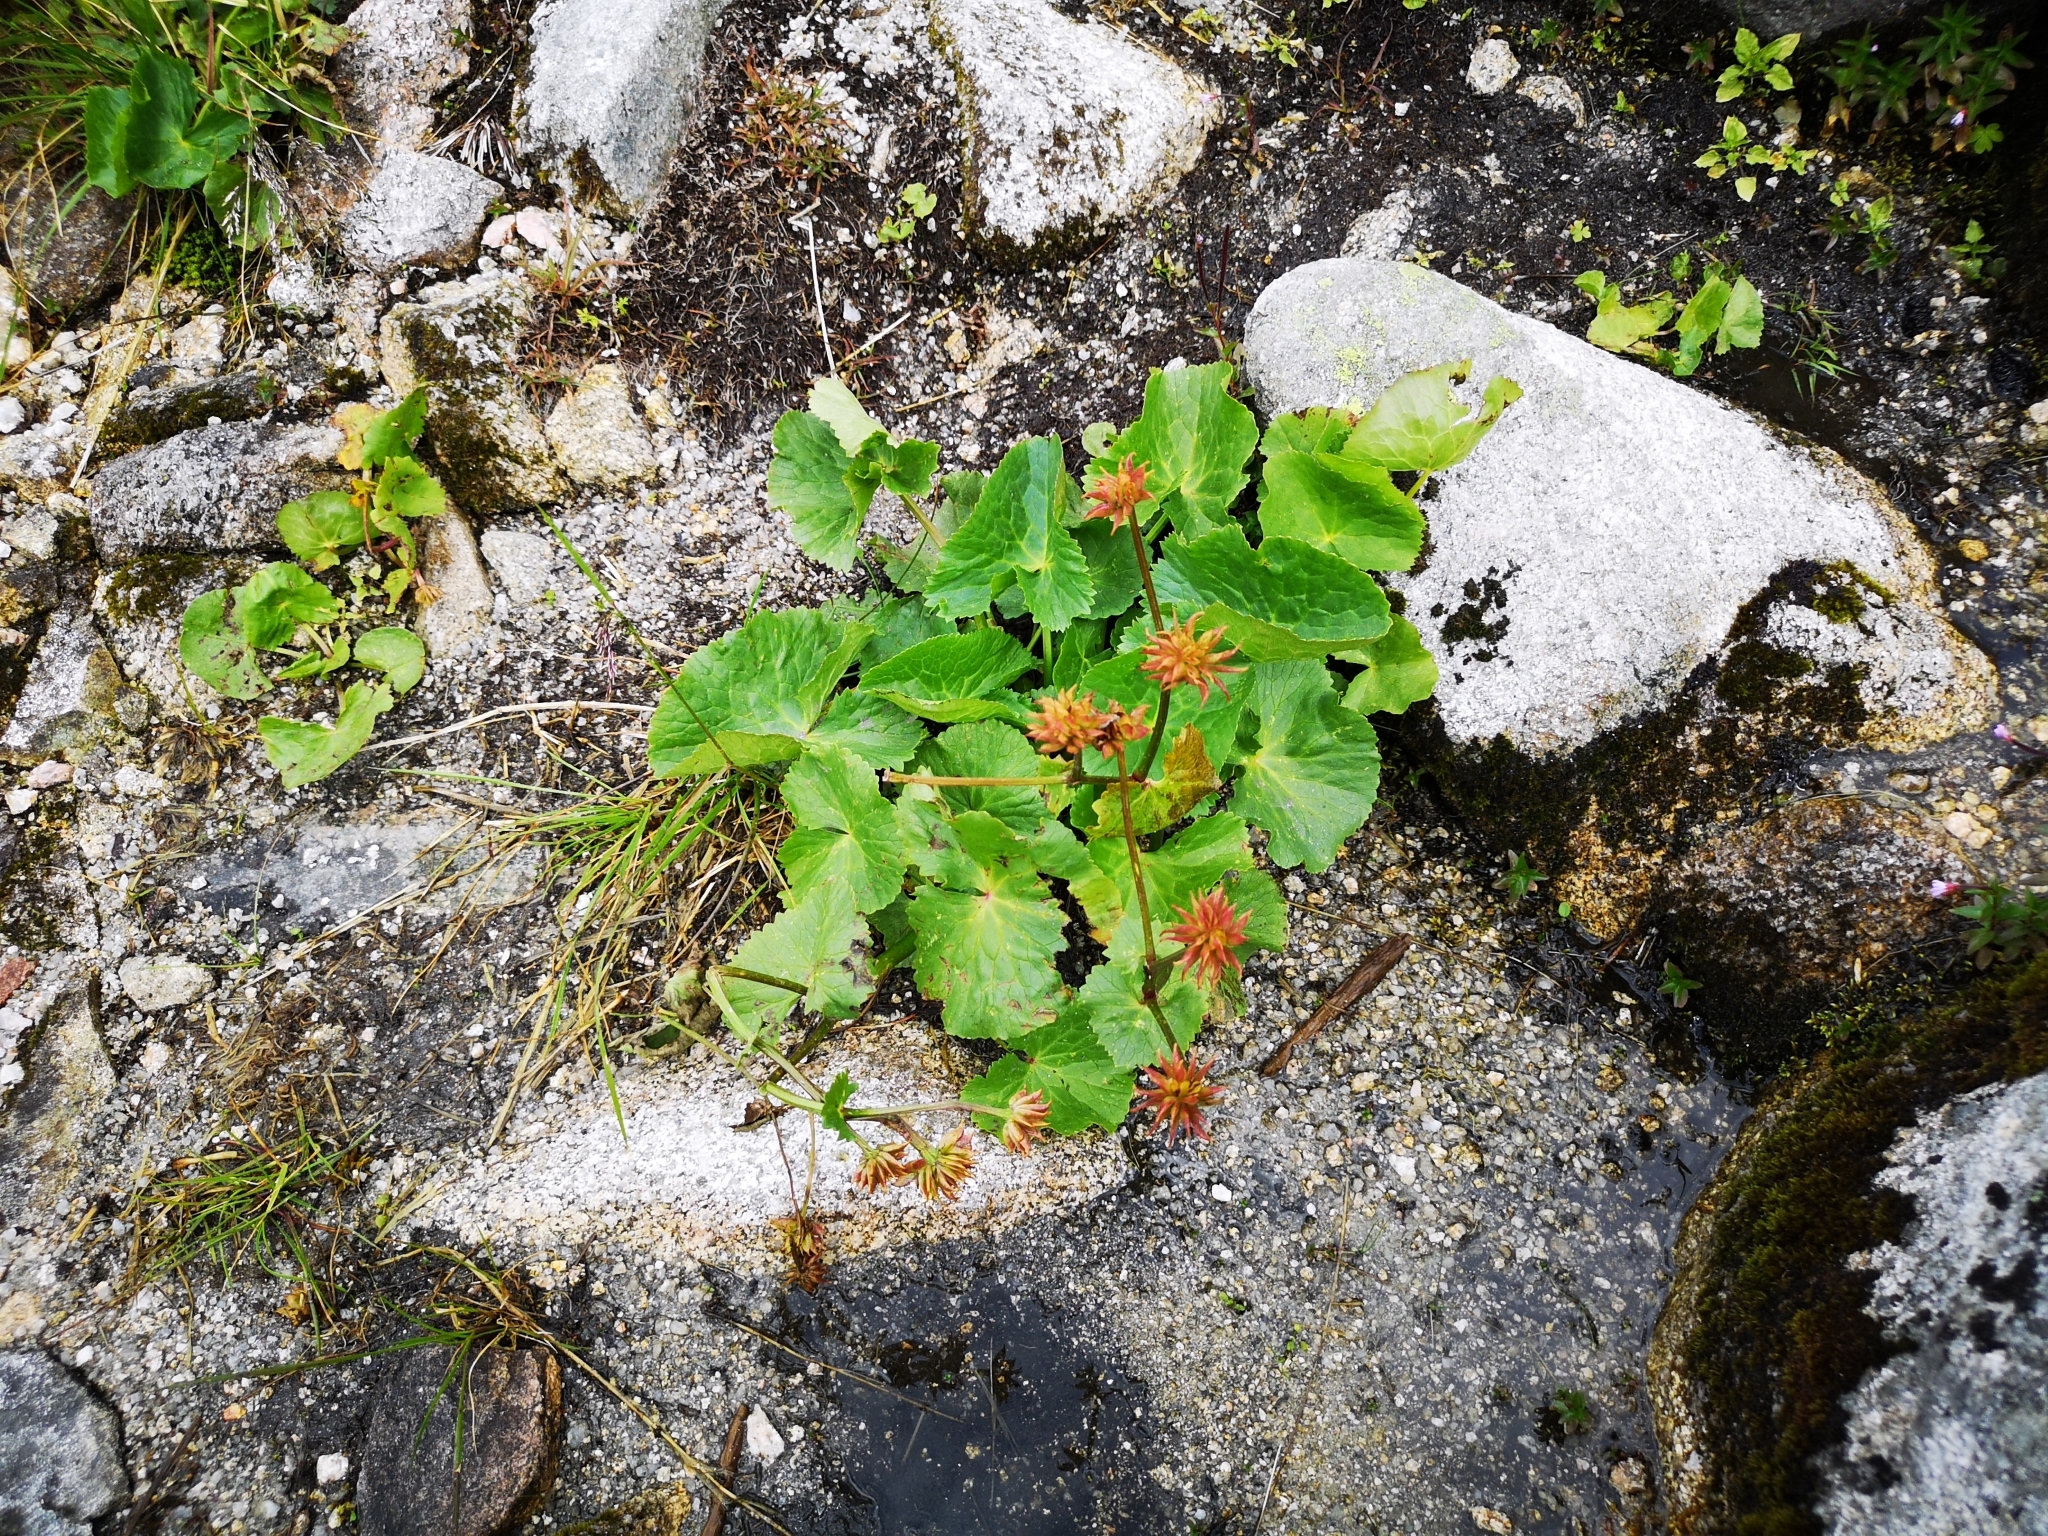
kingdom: Plantae
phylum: Tracheophyta
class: Magnoliopsida
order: Ranunculales
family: Ranunculaceae
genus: Caltha
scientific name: Caltha palustris
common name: Marsh marigold
